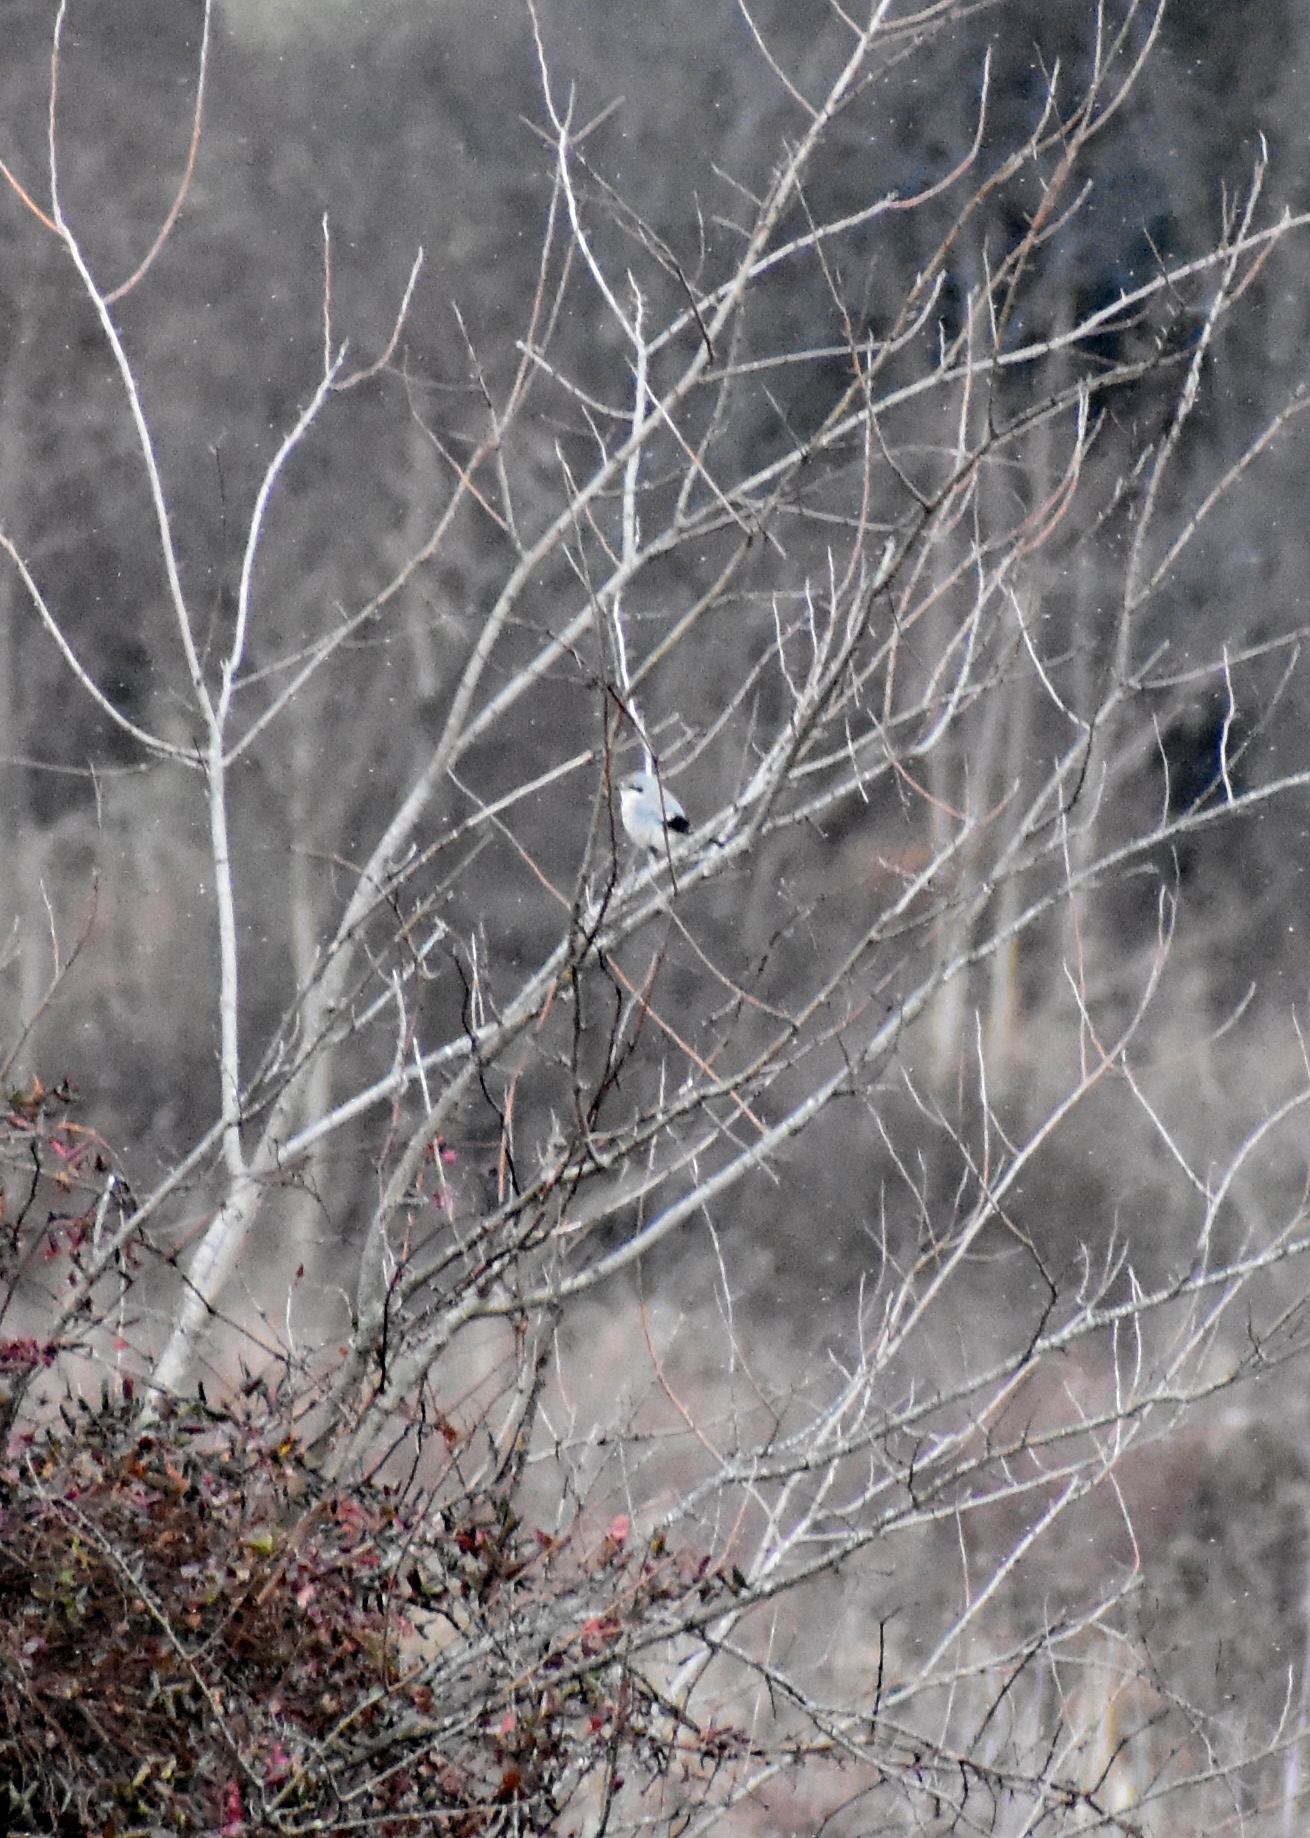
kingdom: Animalia
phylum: Chordata
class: Aves
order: Passeriformes
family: Laniidae
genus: Lanius
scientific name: Lanius borealis
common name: Northern shrike
